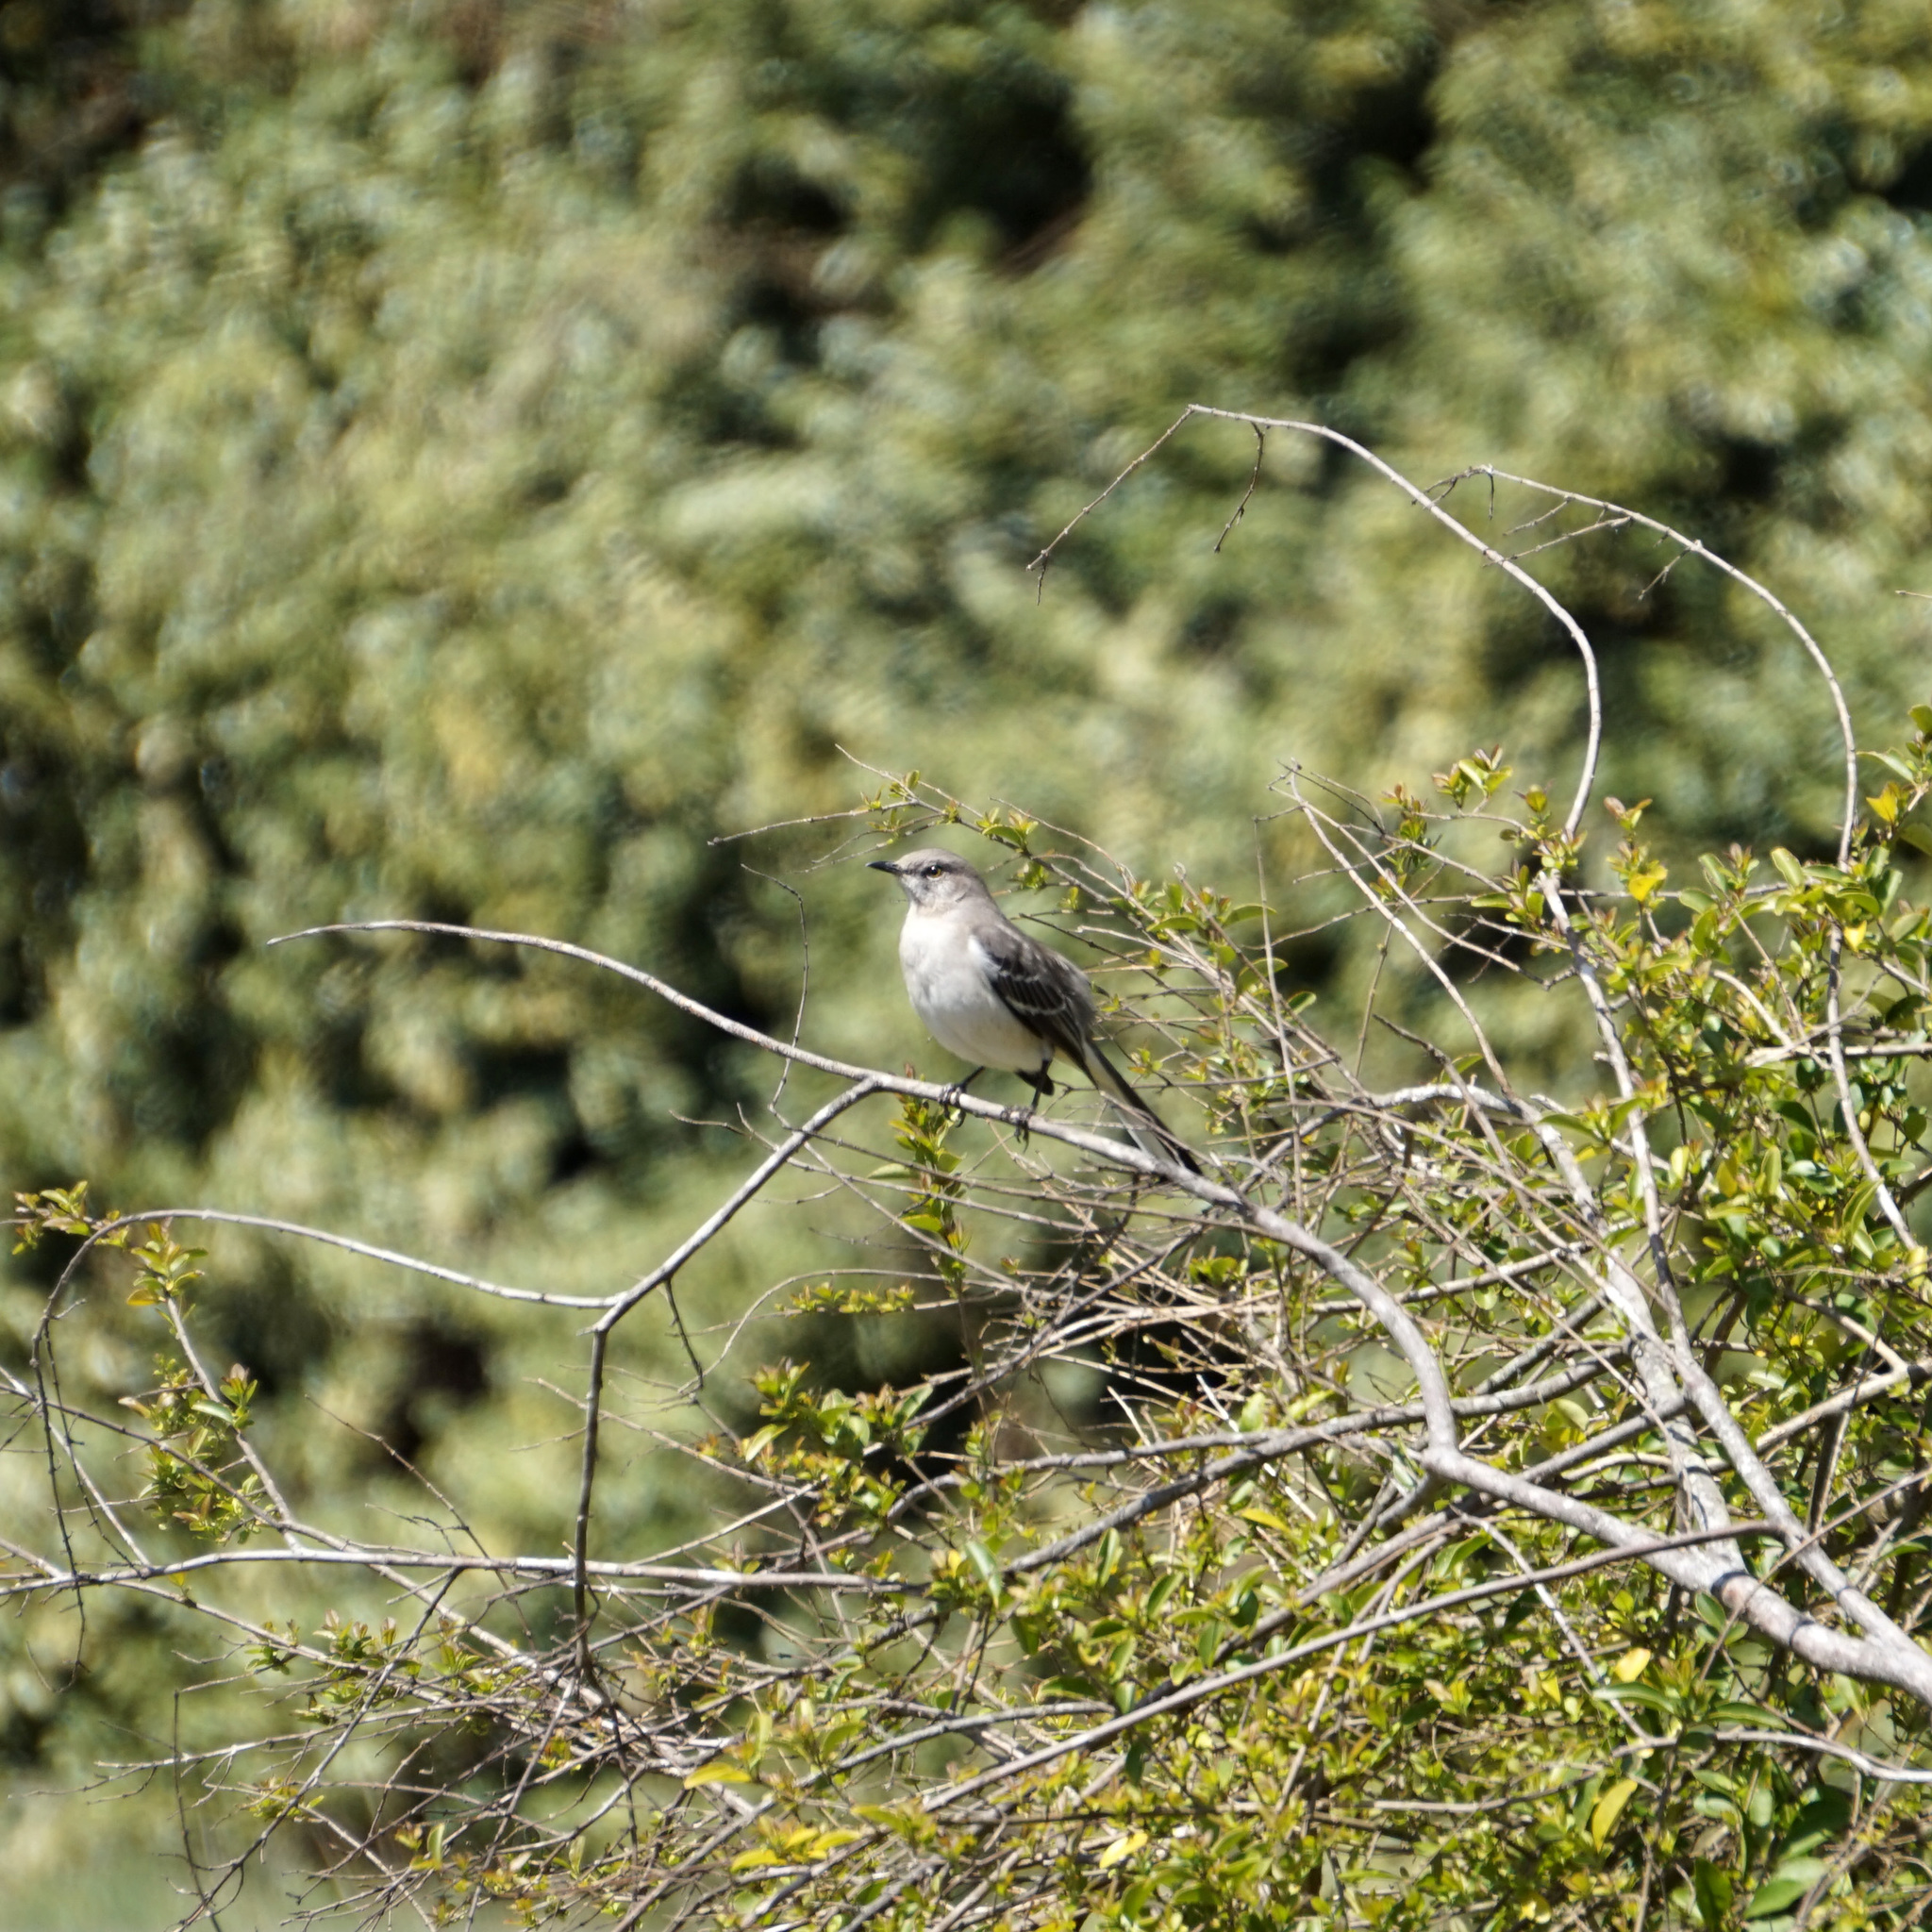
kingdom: Animalia
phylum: Chordata
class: Aves
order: Passeriformes
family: Mimidae
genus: Mimus
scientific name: Mimus polyglottos
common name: Northern mockingbird
